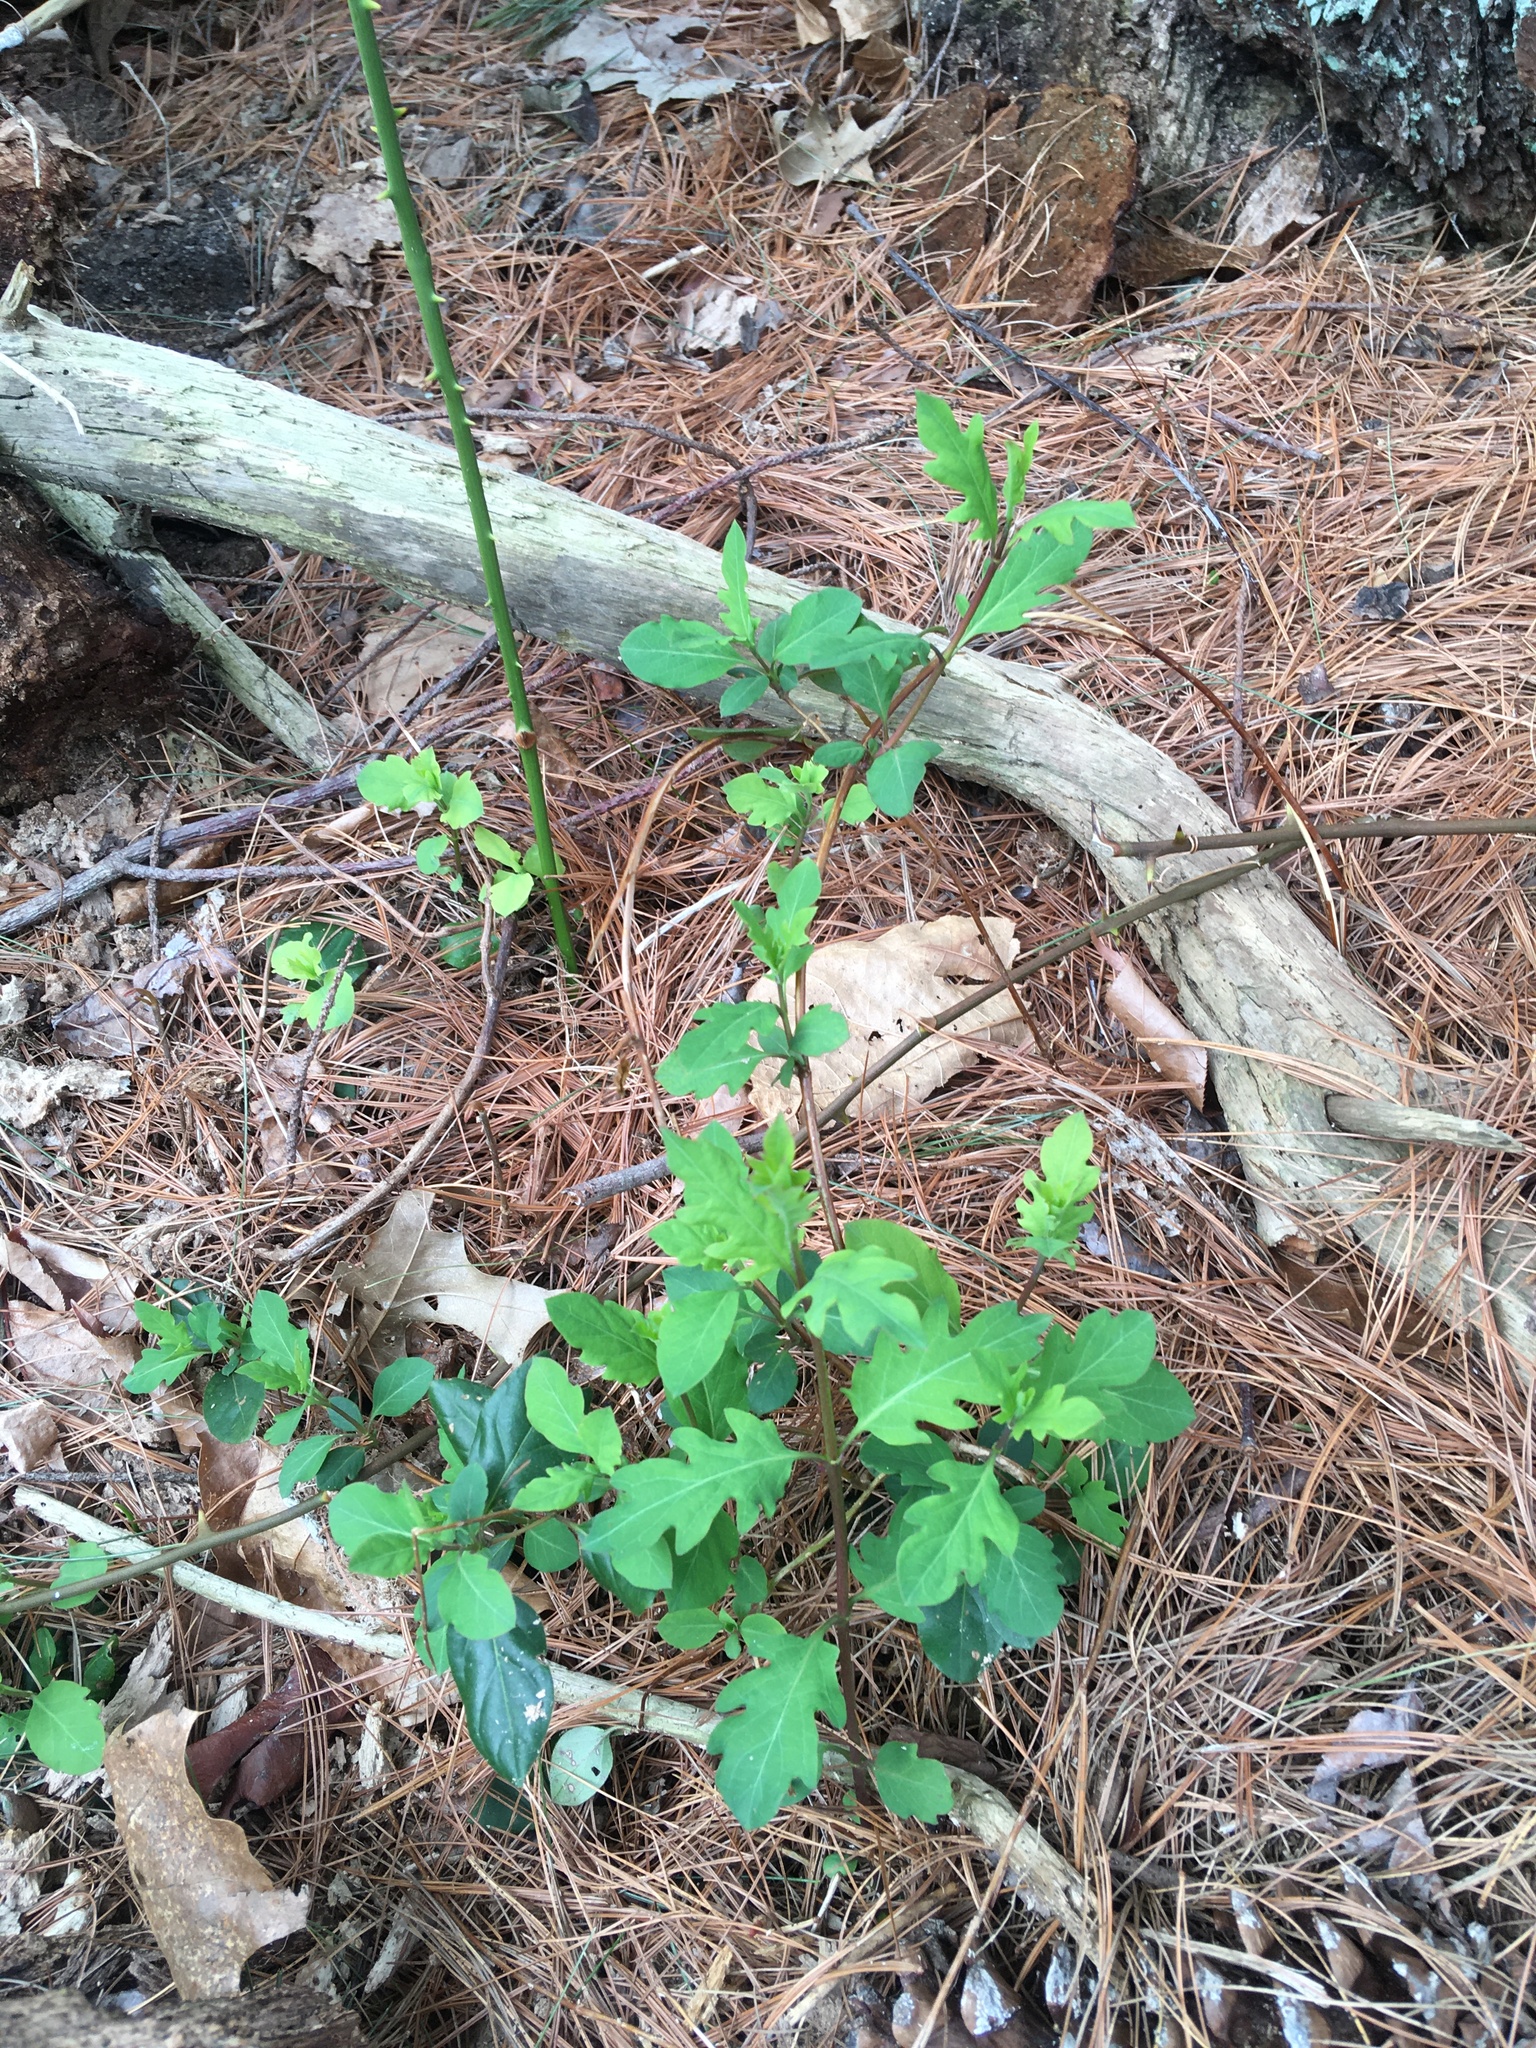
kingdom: Plantae
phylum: Tracheophyta
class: Magnoliopsida
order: Dipsacales
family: Caprifoliaceae
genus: Lonicera
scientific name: Lonicera japonica
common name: Japanese honeysuckle
